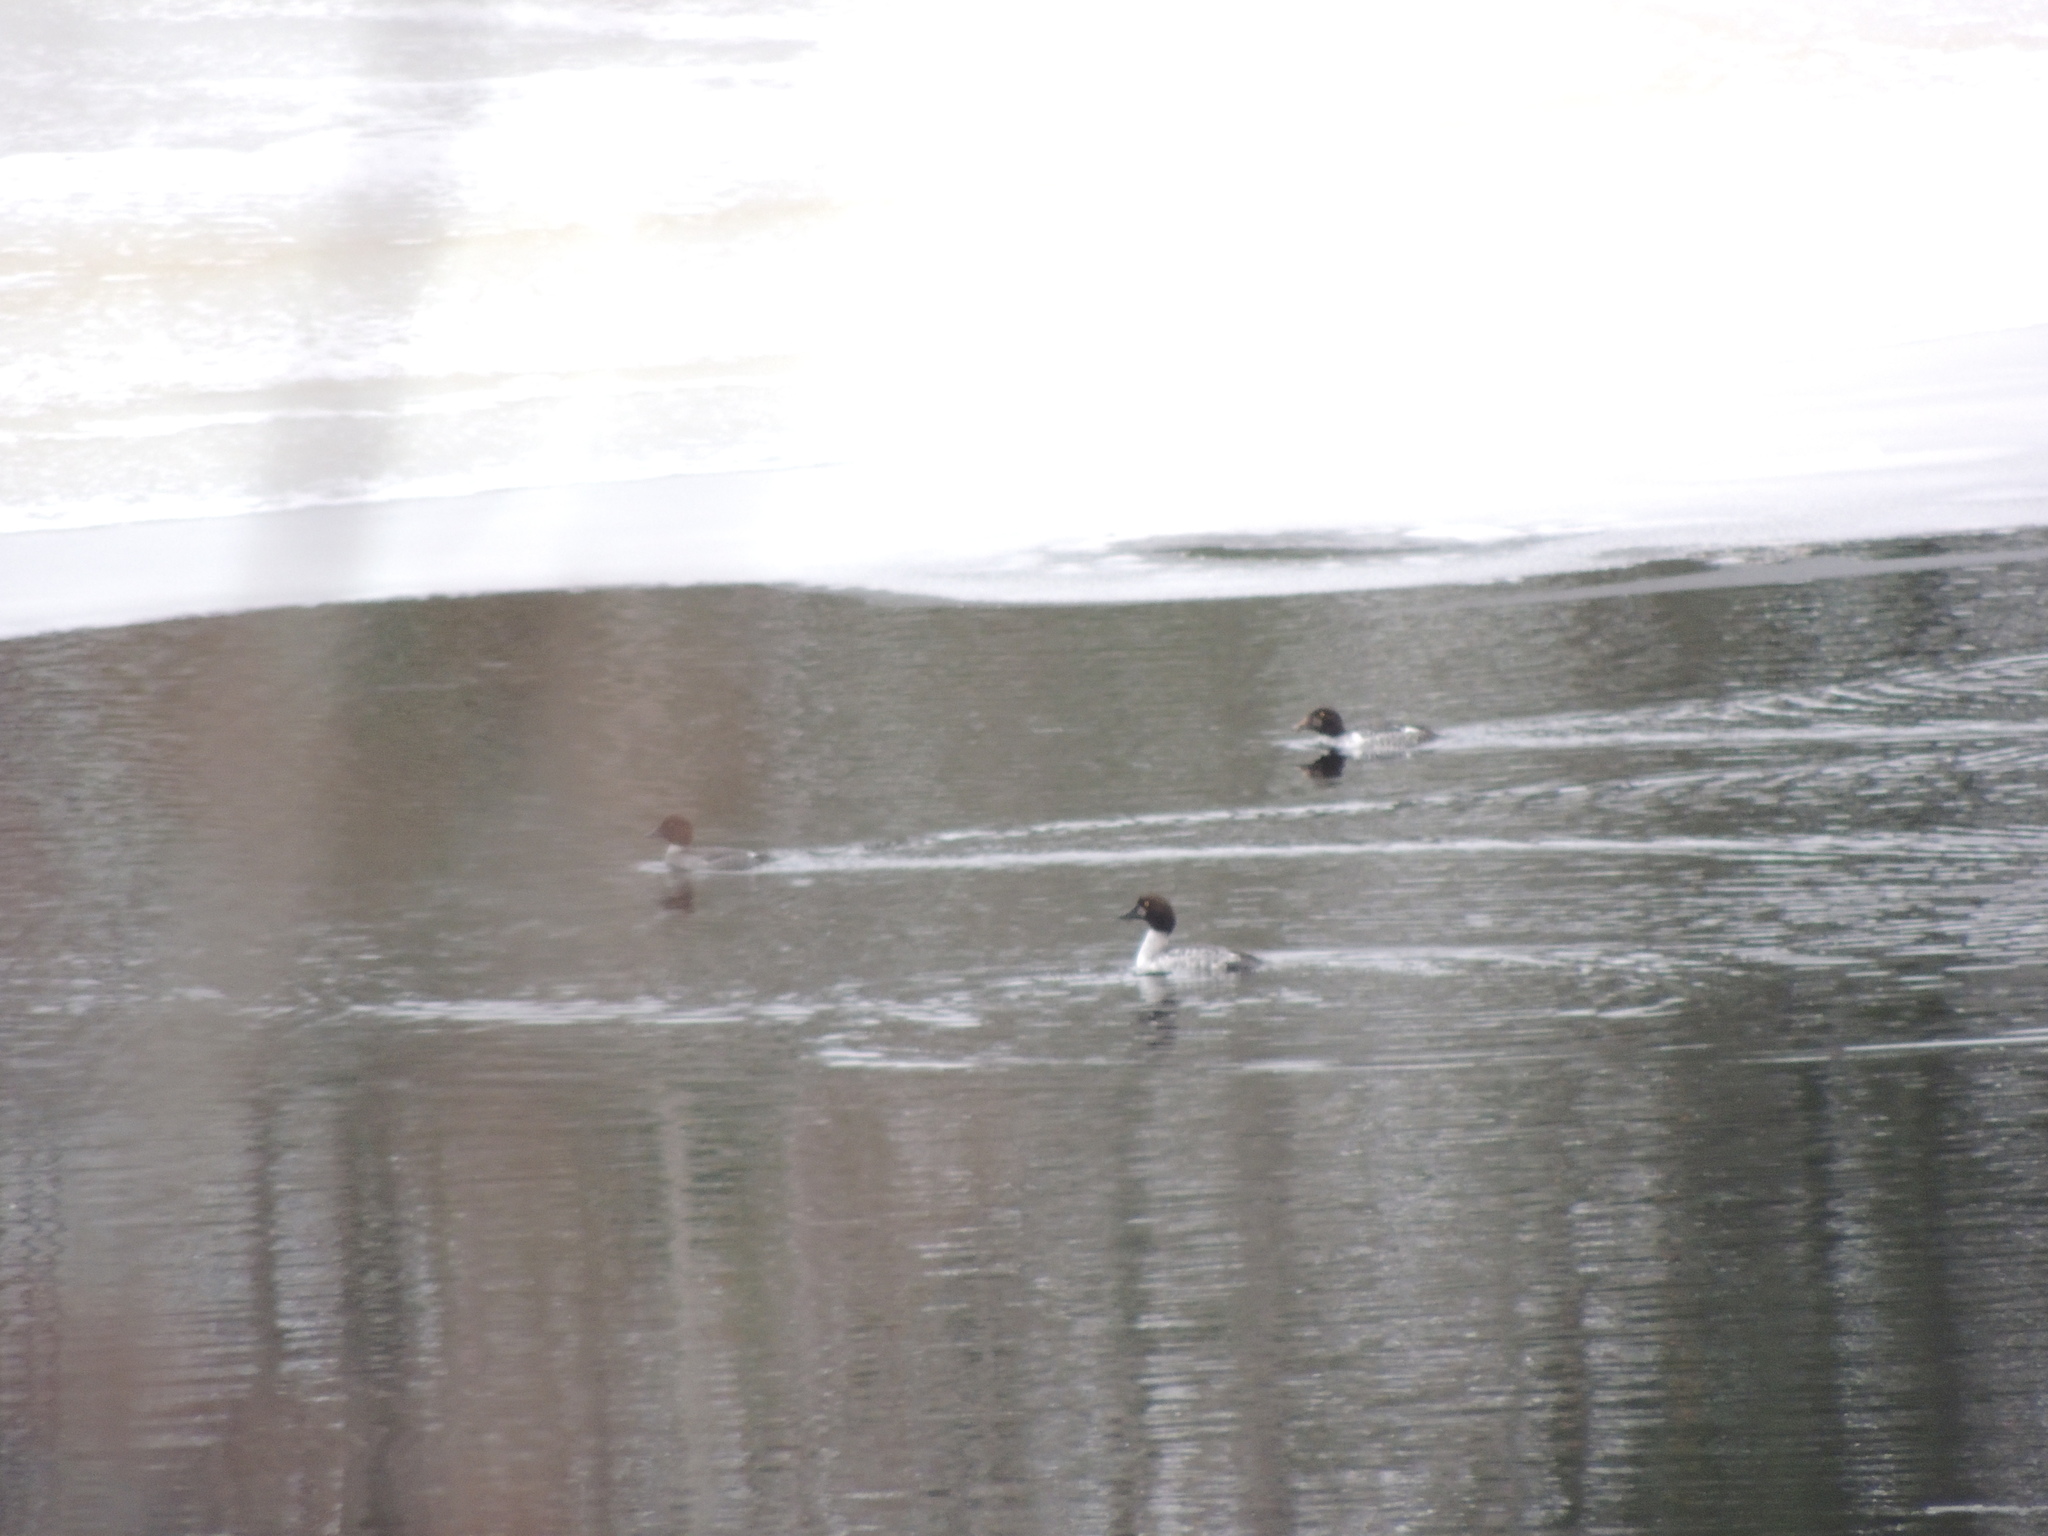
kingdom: Animalia
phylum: Chordata
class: Aves
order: Anseriformes
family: Anatidae
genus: Bucephala
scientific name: Bucephala clangula
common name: Common goldeneye
